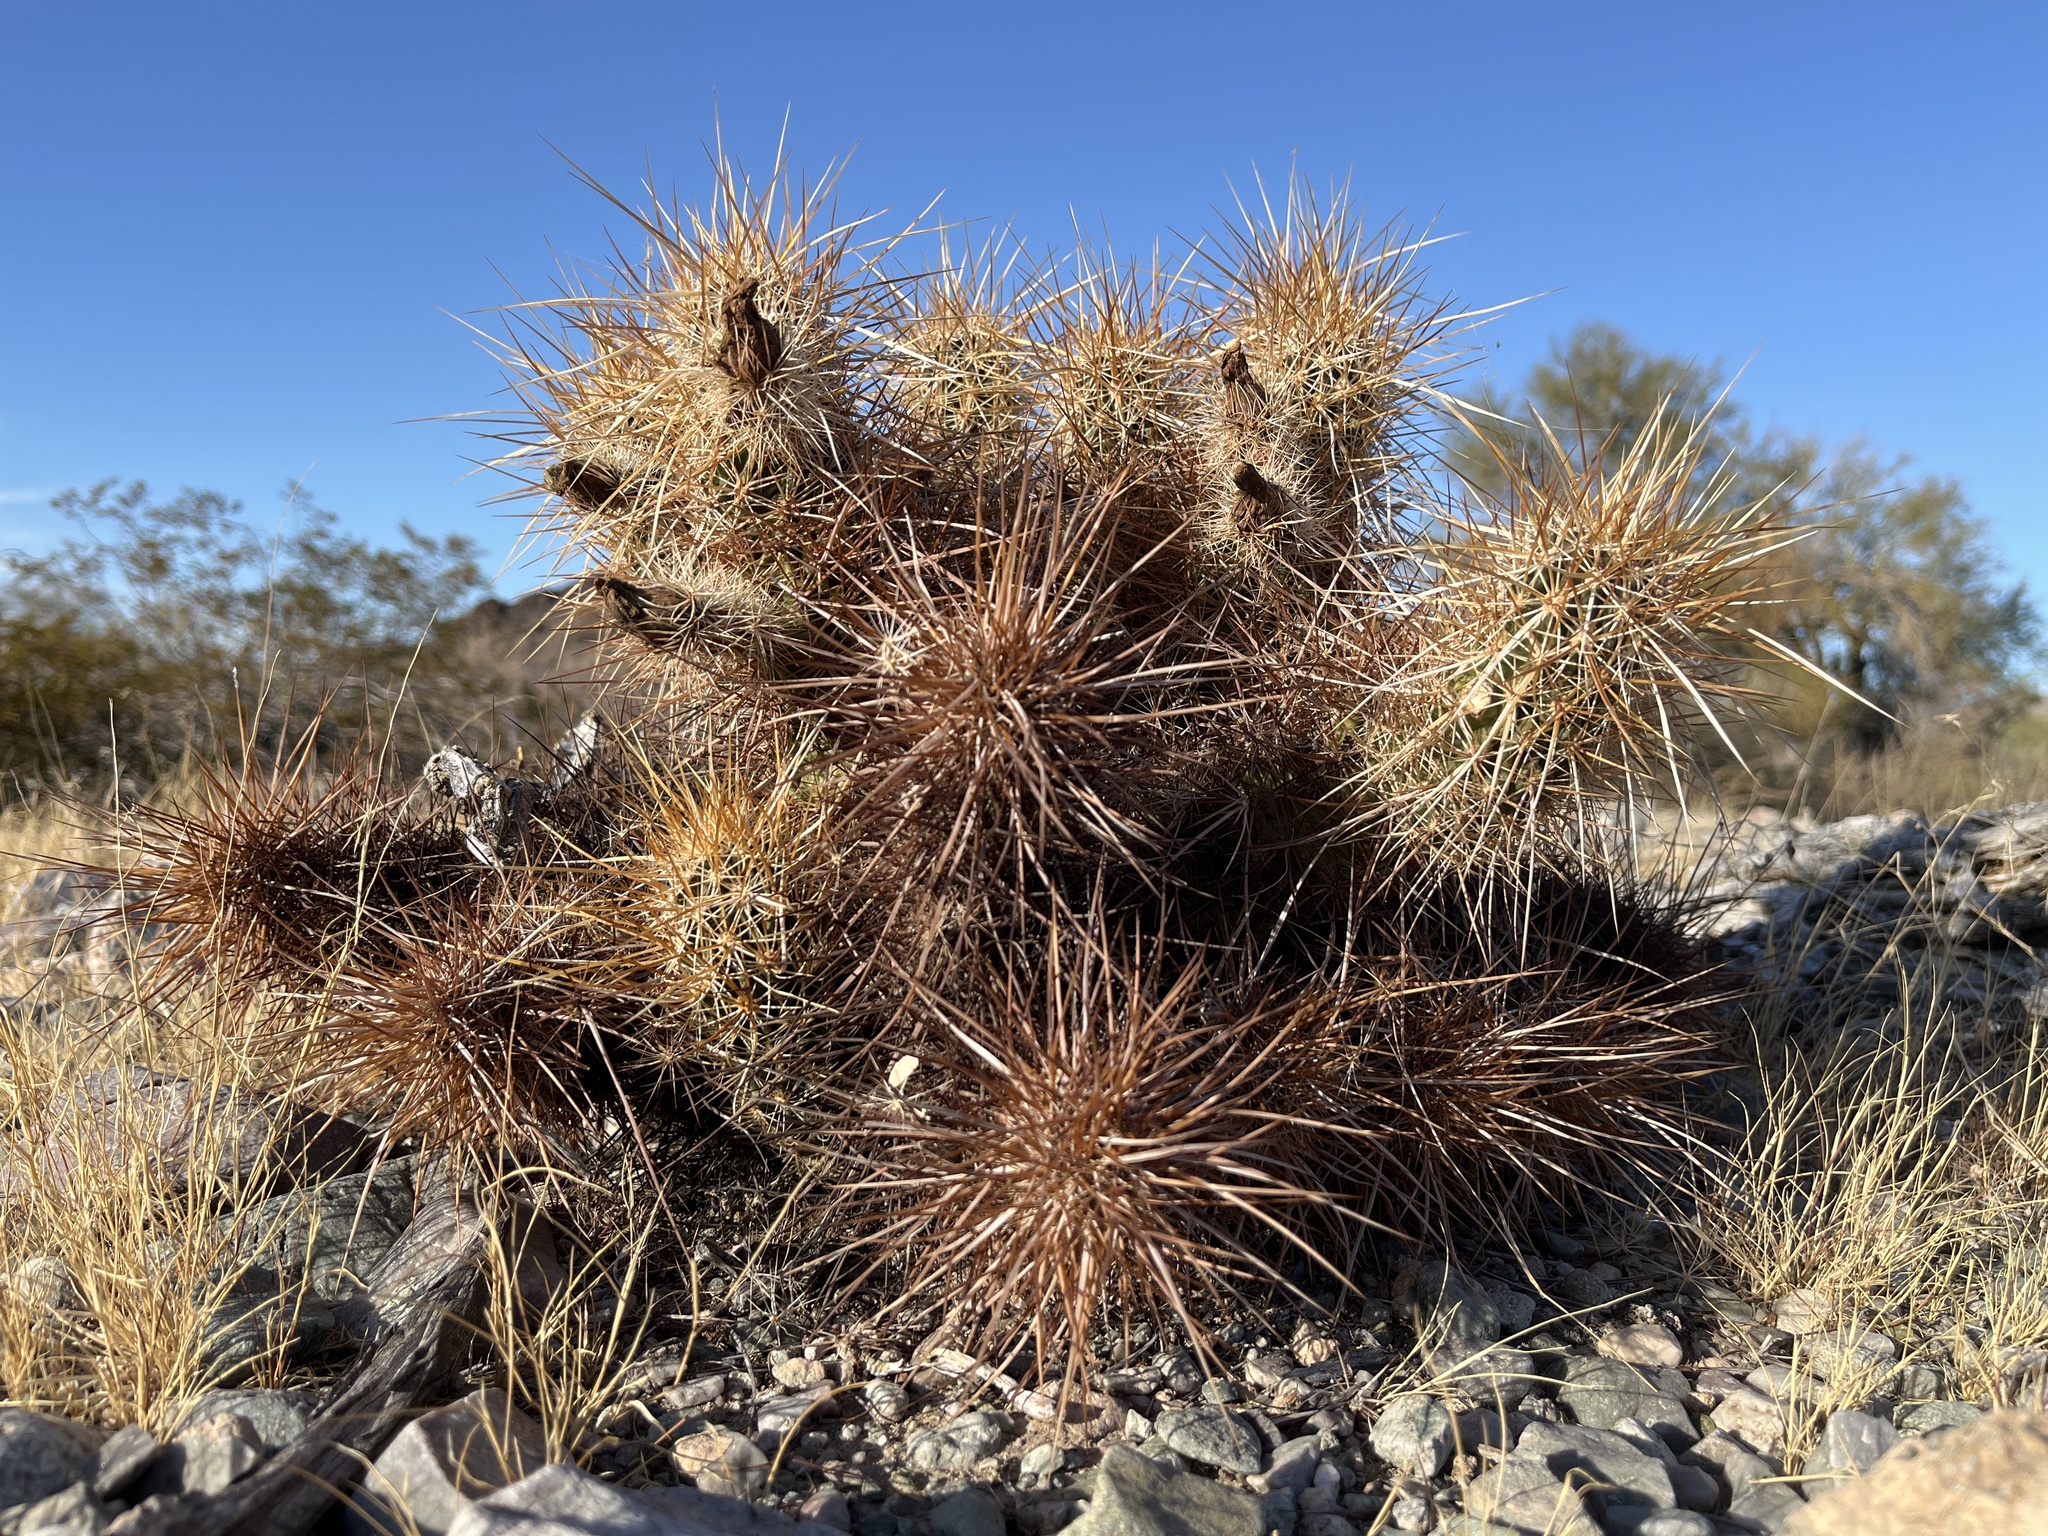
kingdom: Plantae
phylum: Tracheophyta
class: Magnoliopsida
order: Caryophyllales
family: Cactaceae
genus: Echinocereus
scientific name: Echinocereus engelmannii
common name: Engelmann's hedgehog cactus
